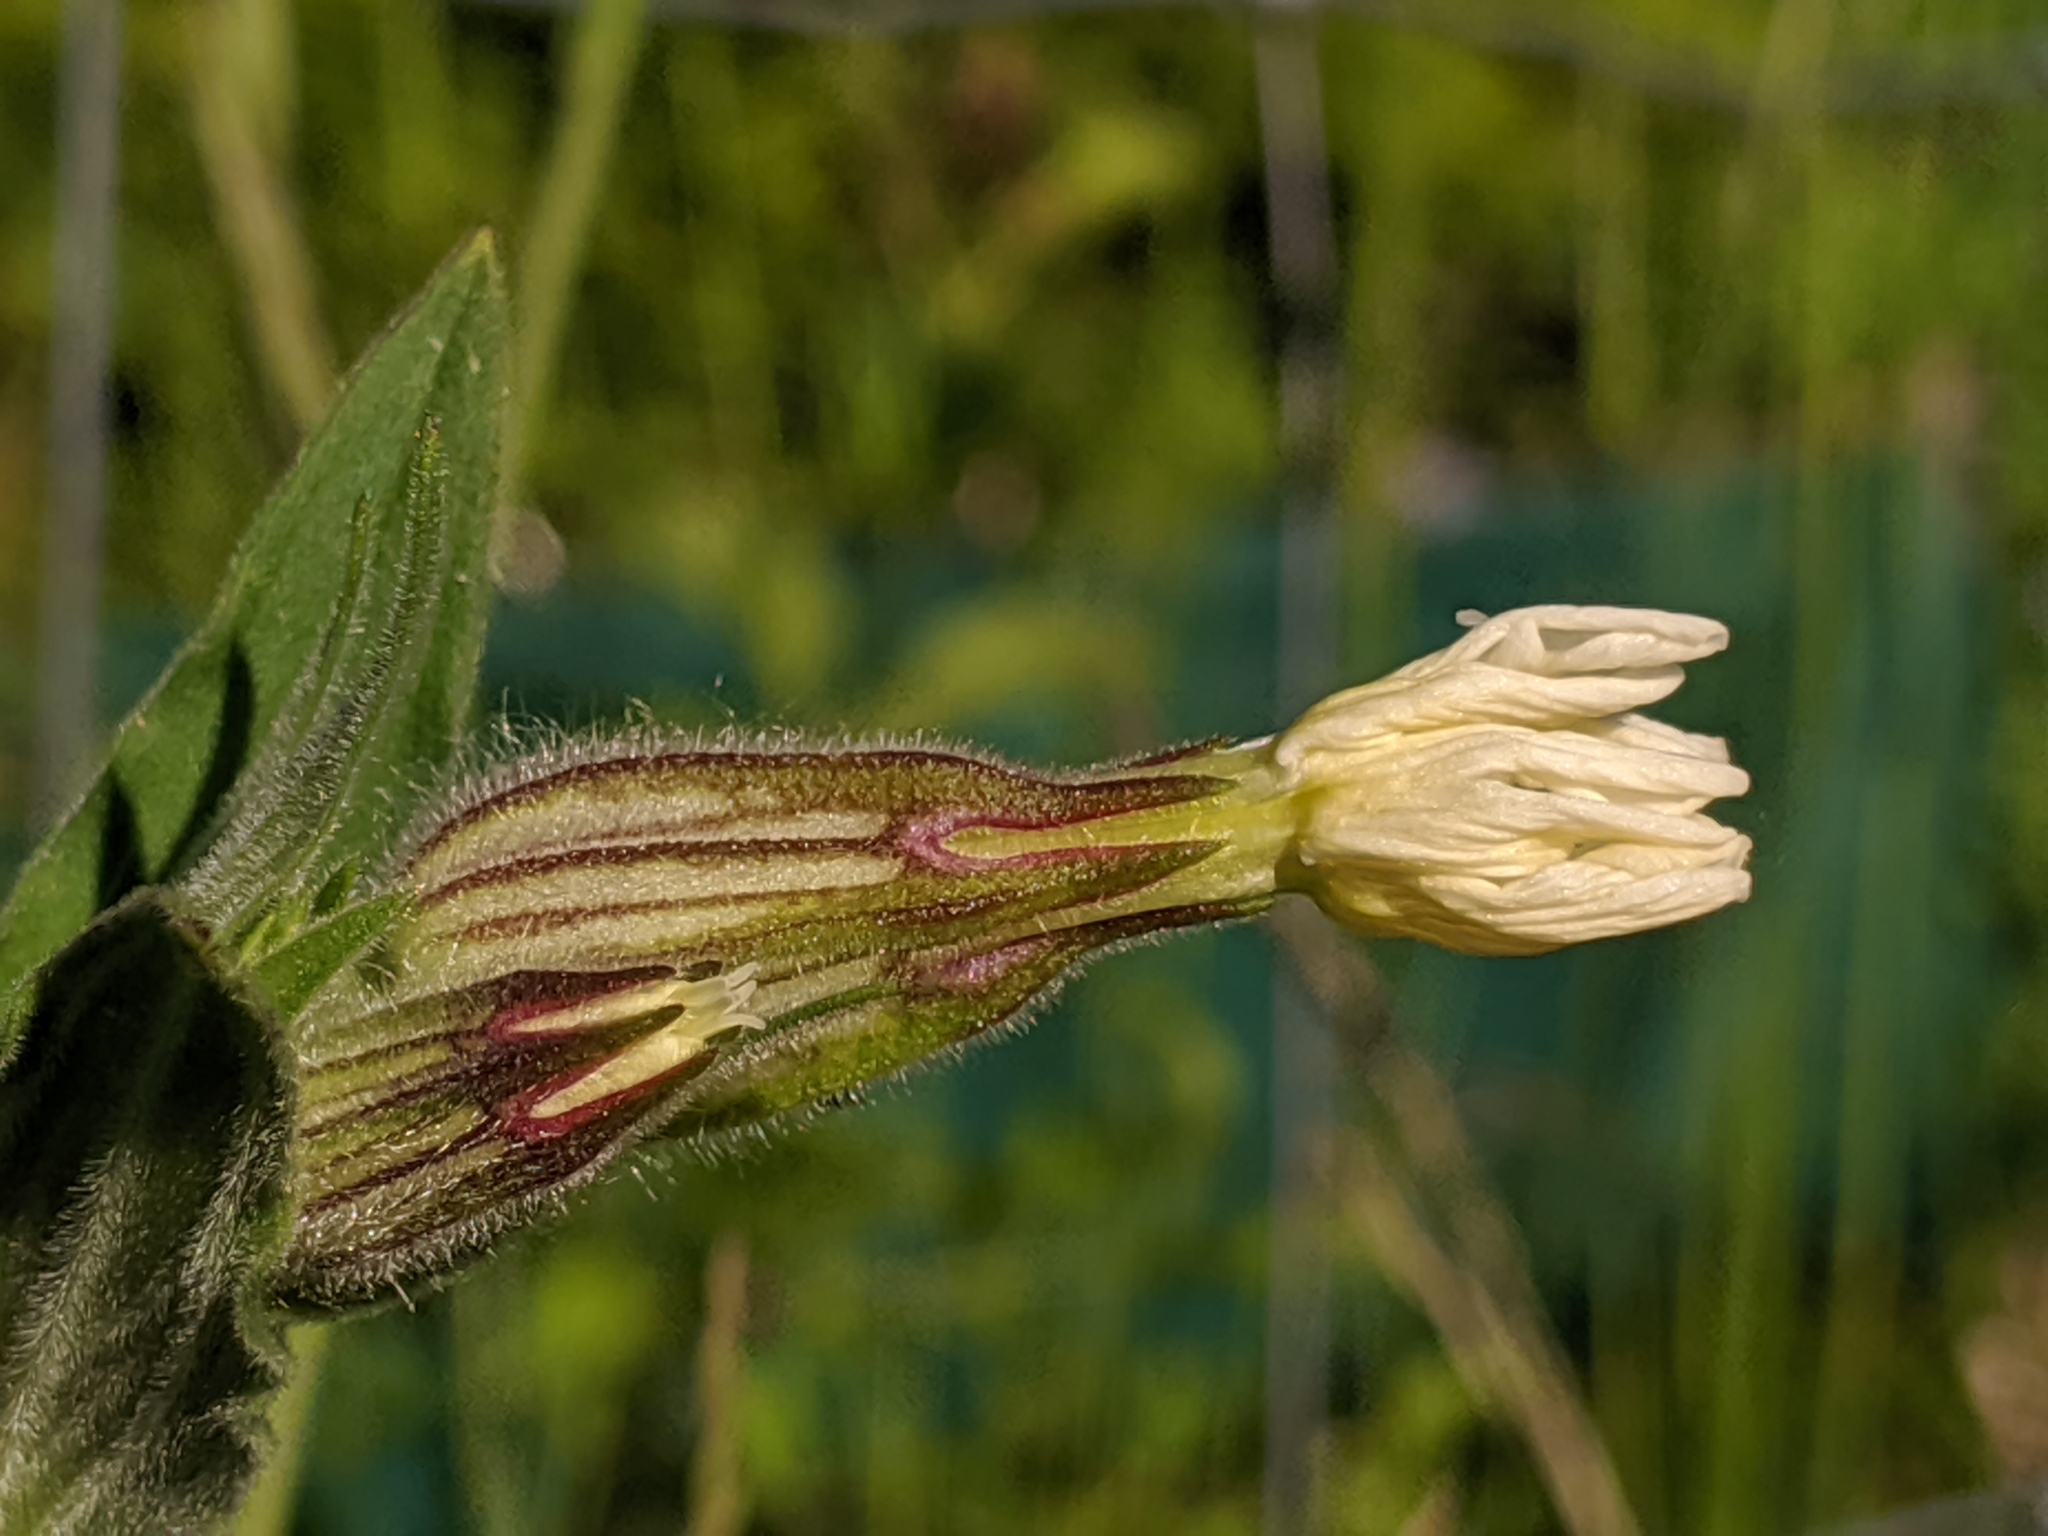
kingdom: Plantae
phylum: Tracheophyta
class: Magnoliopsida
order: Caryophyllales
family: Caryophyllaceae
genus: Silene
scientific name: Silene latifolia
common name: White campion
